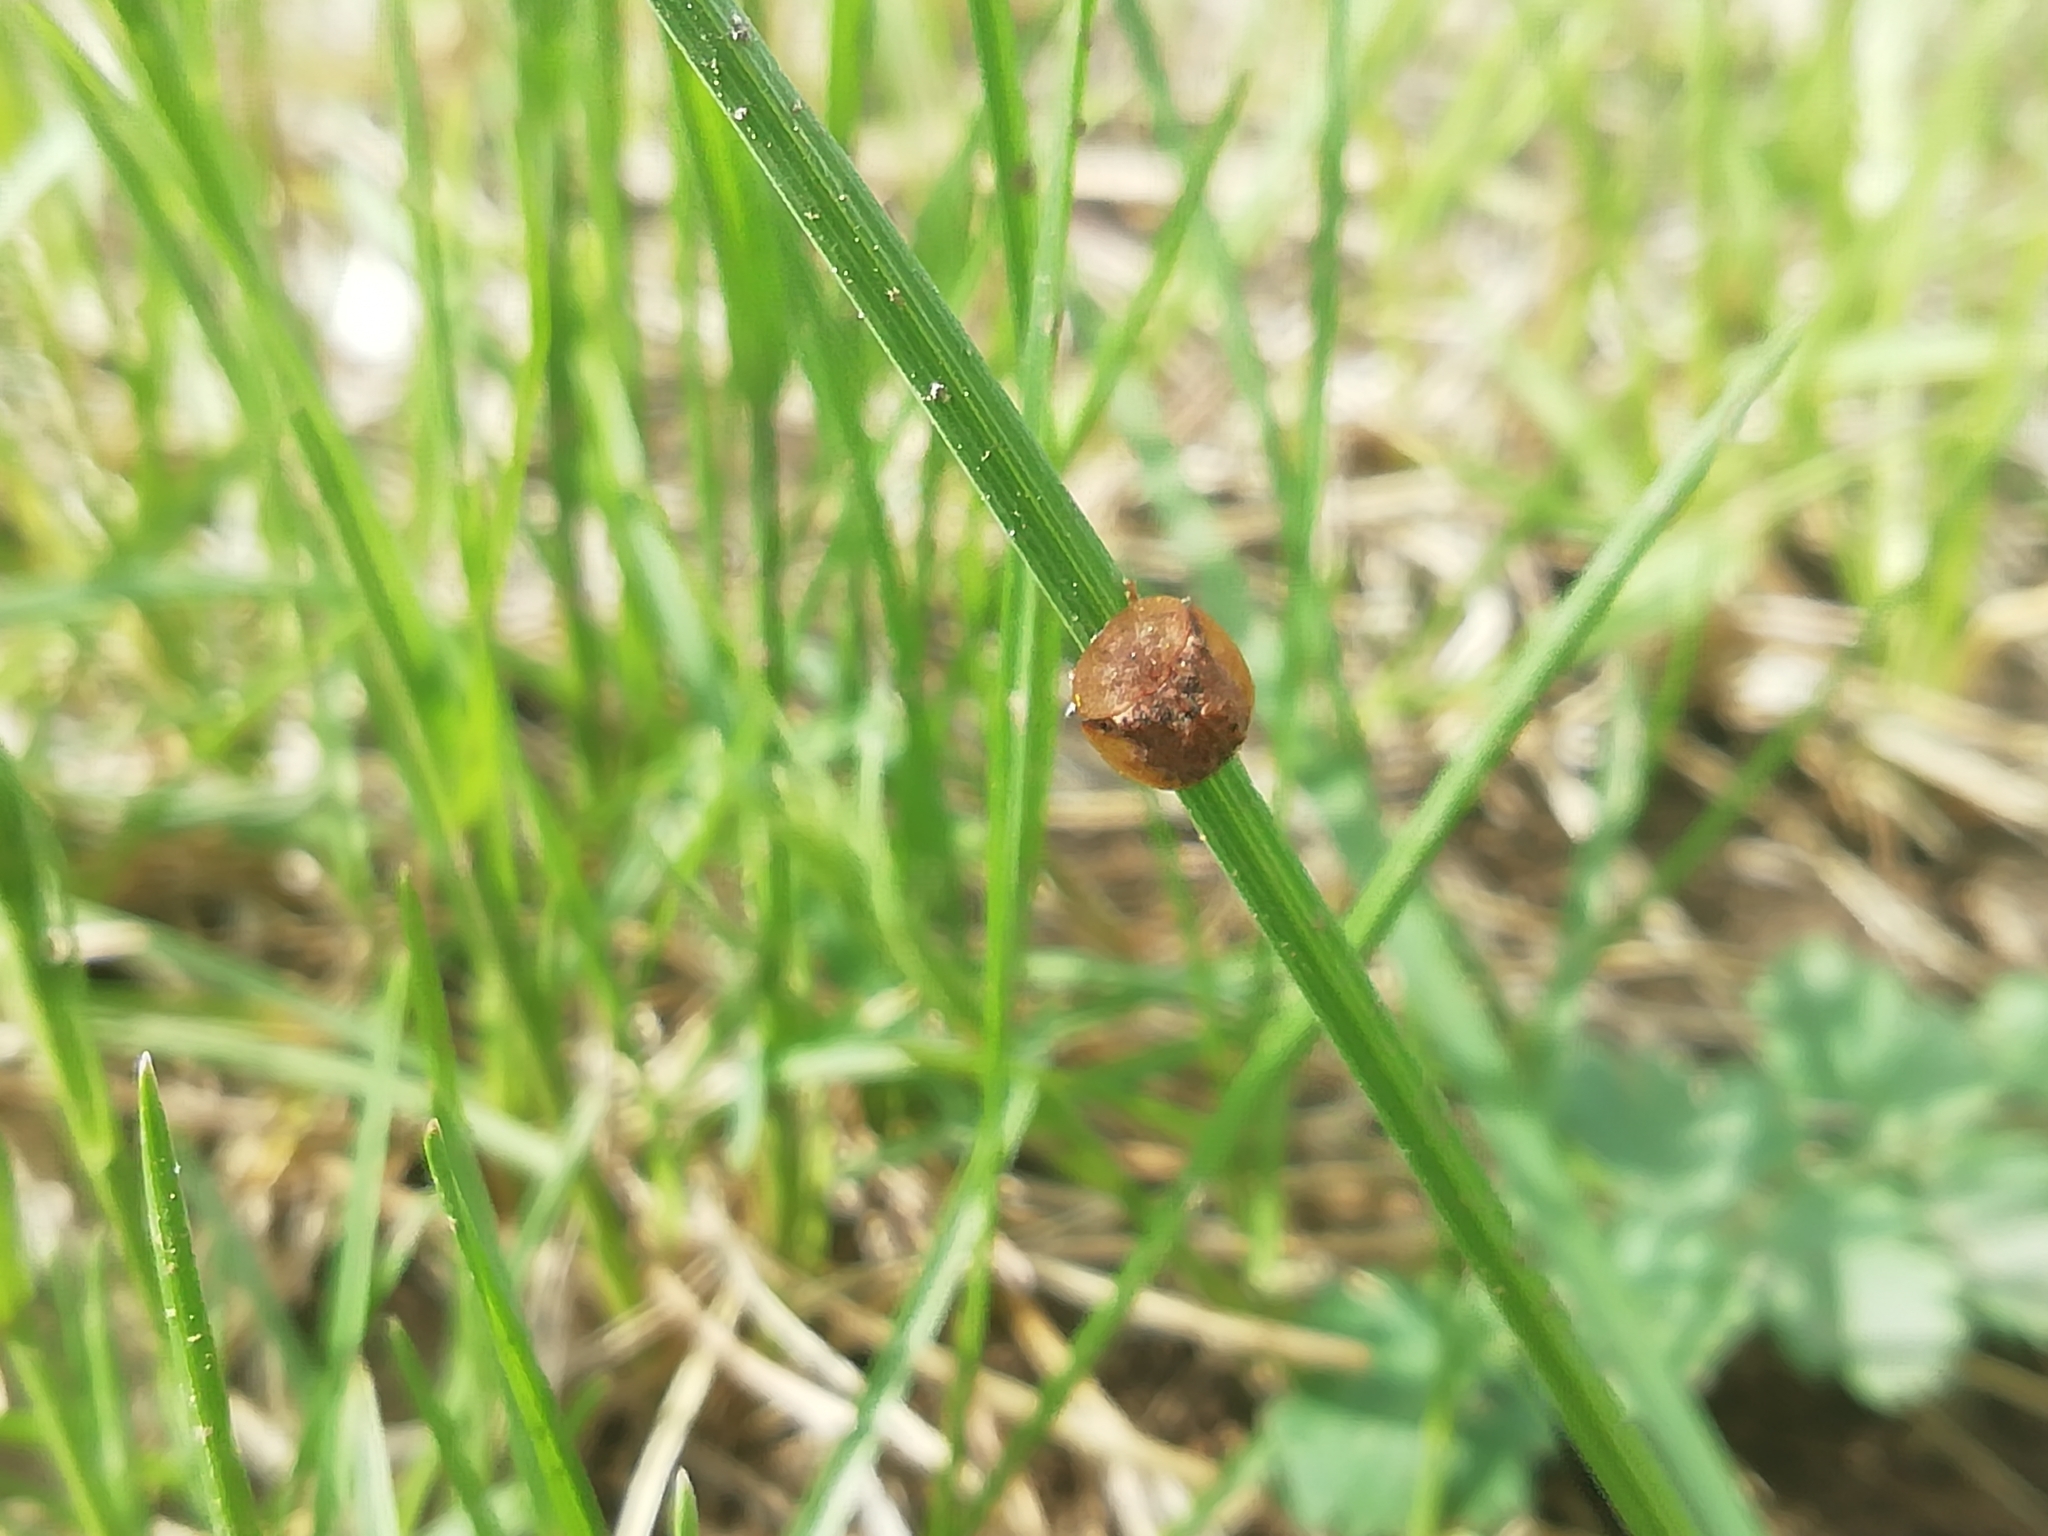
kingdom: Animalia
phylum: Arthropoda
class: Insecta
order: Coleoptera
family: Chrysomelidae
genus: Cassida
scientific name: Cassida nebulosa
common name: Beet tortoise beetle
